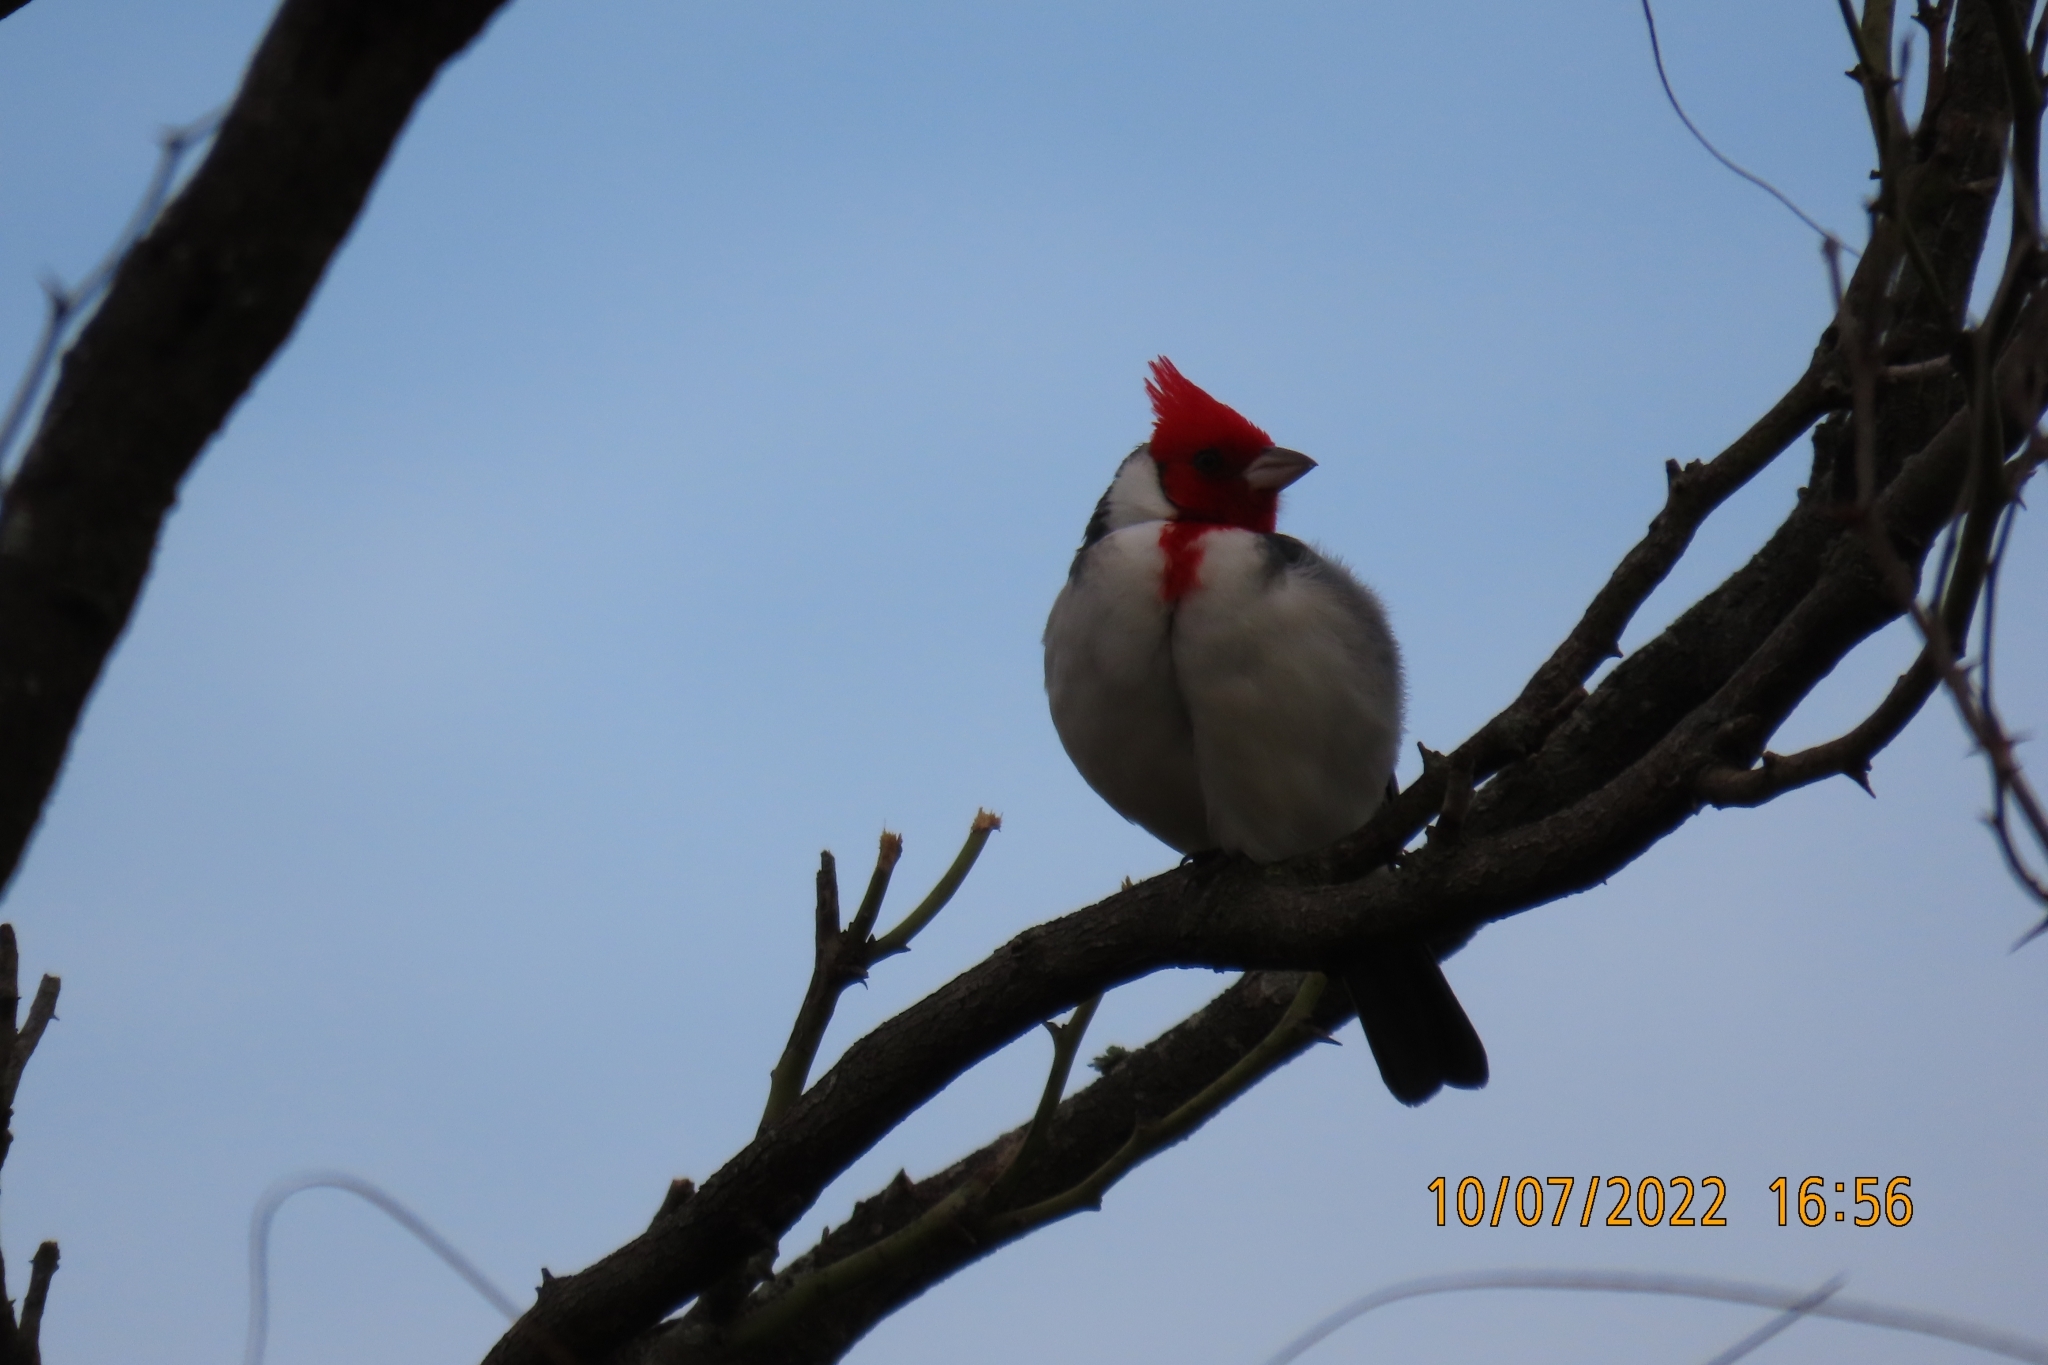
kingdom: Animalia
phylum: Chordata
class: Aves
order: Passeriformes
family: Thraupidae
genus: Paroaria
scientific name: Paroaria coronata
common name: Red-crested cardinal
